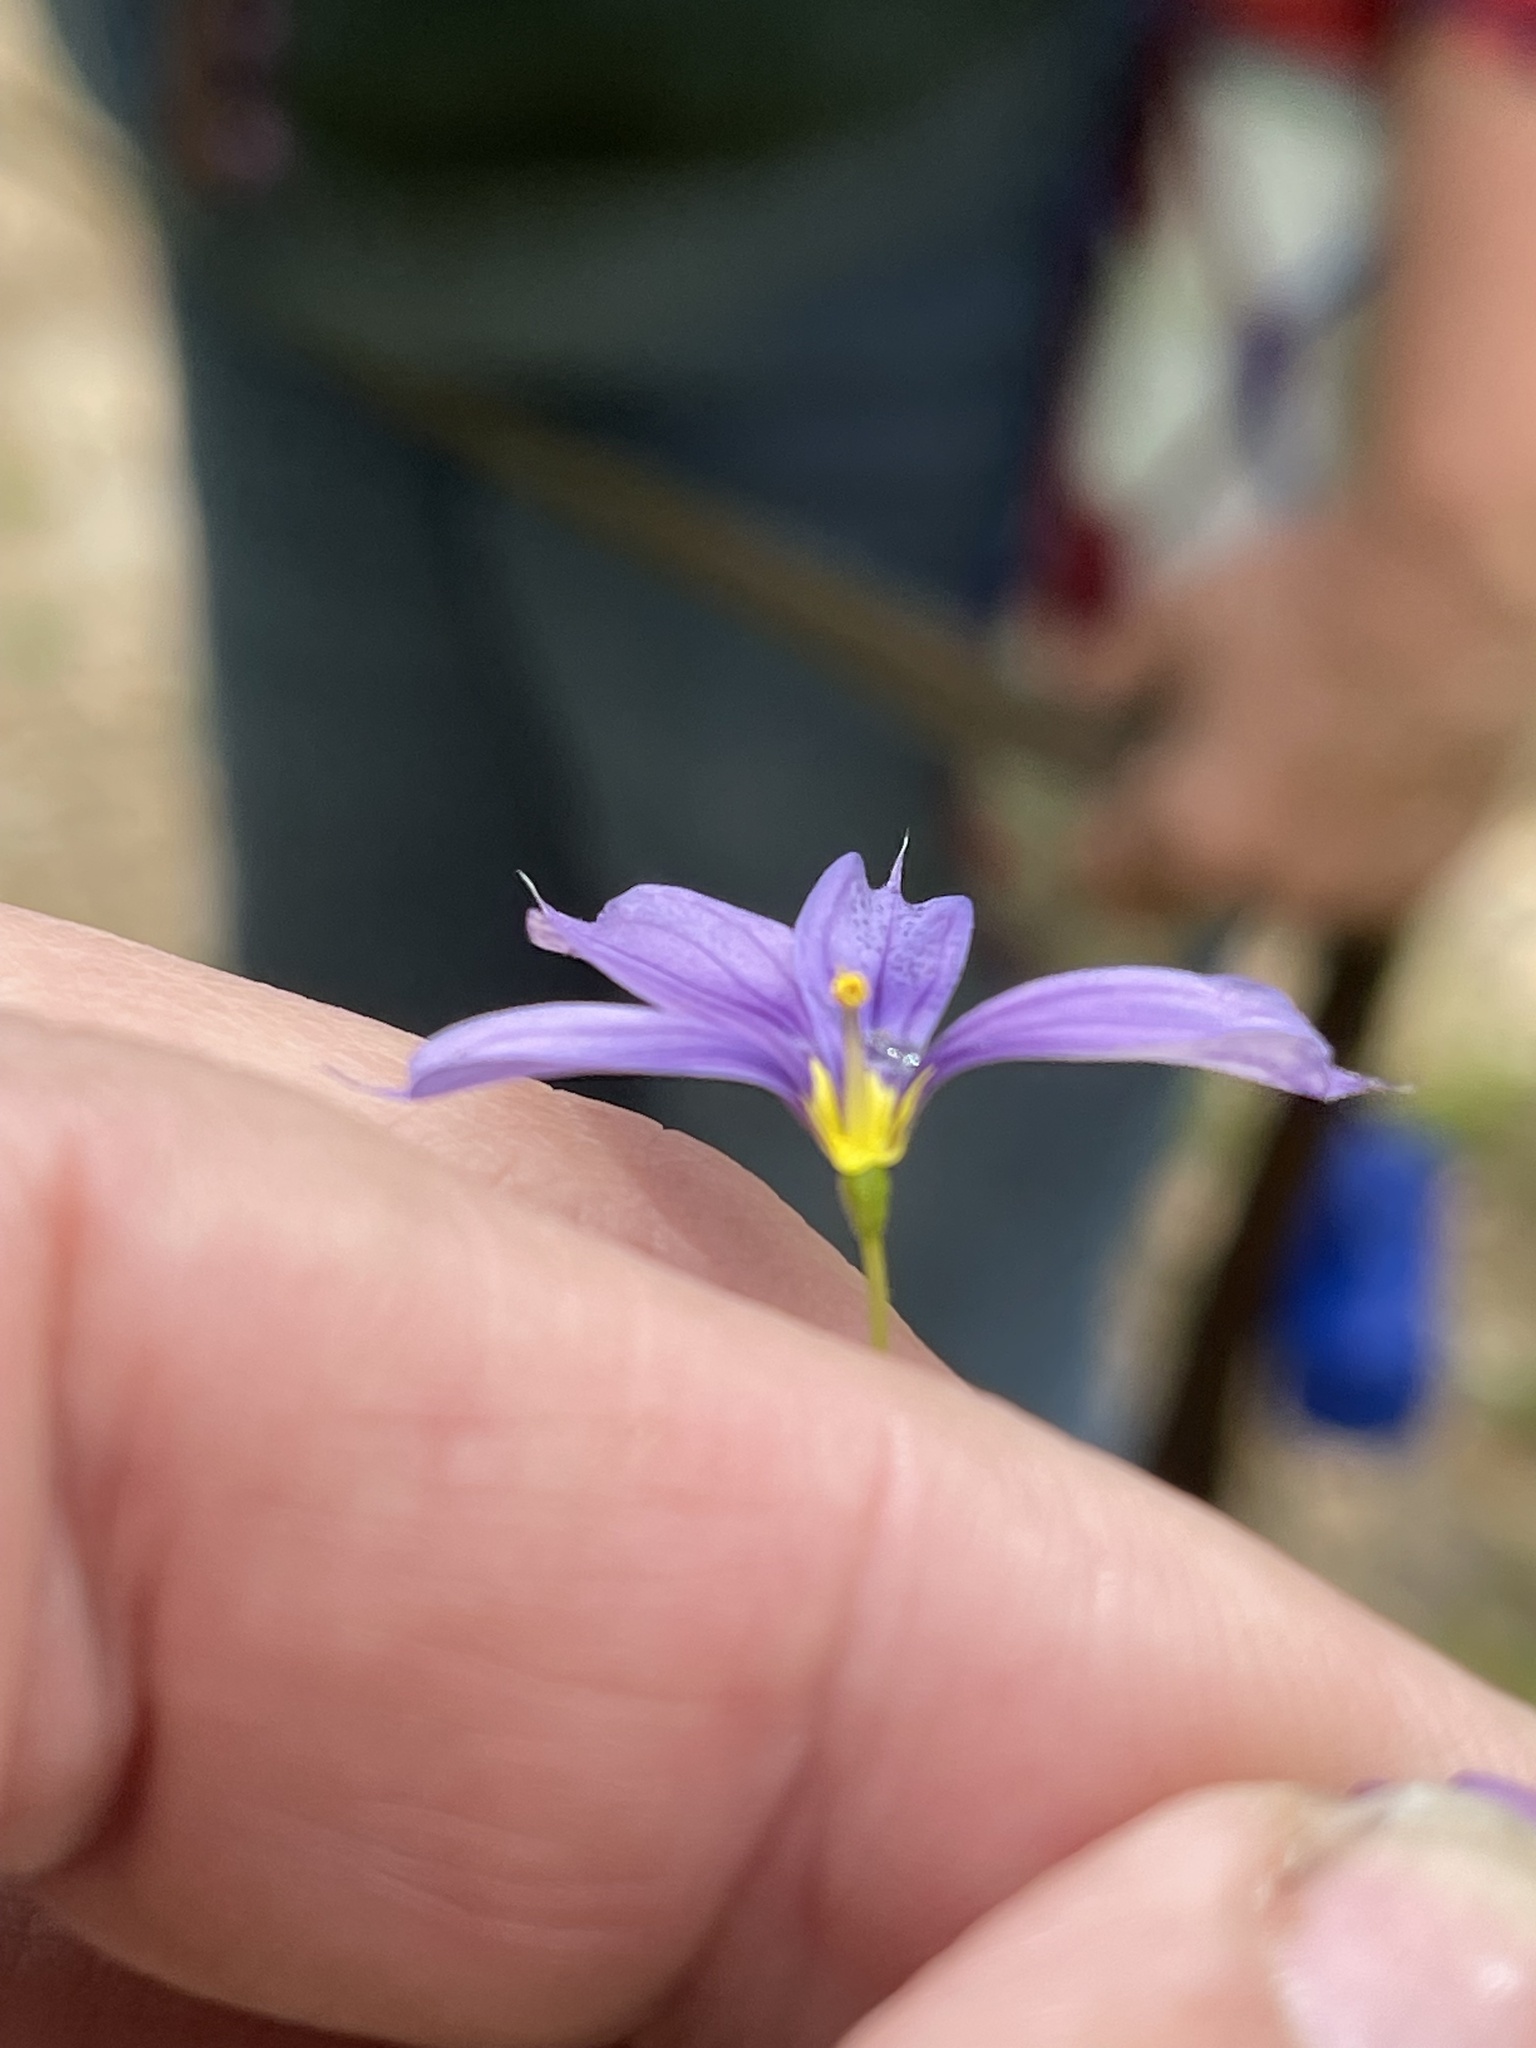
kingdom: Plantae
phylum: Tracheophyta
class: Liliopsida
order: Asparagales
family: Iridaceae
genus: Sisyrinchium
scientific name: Sisyrinchium bellum
